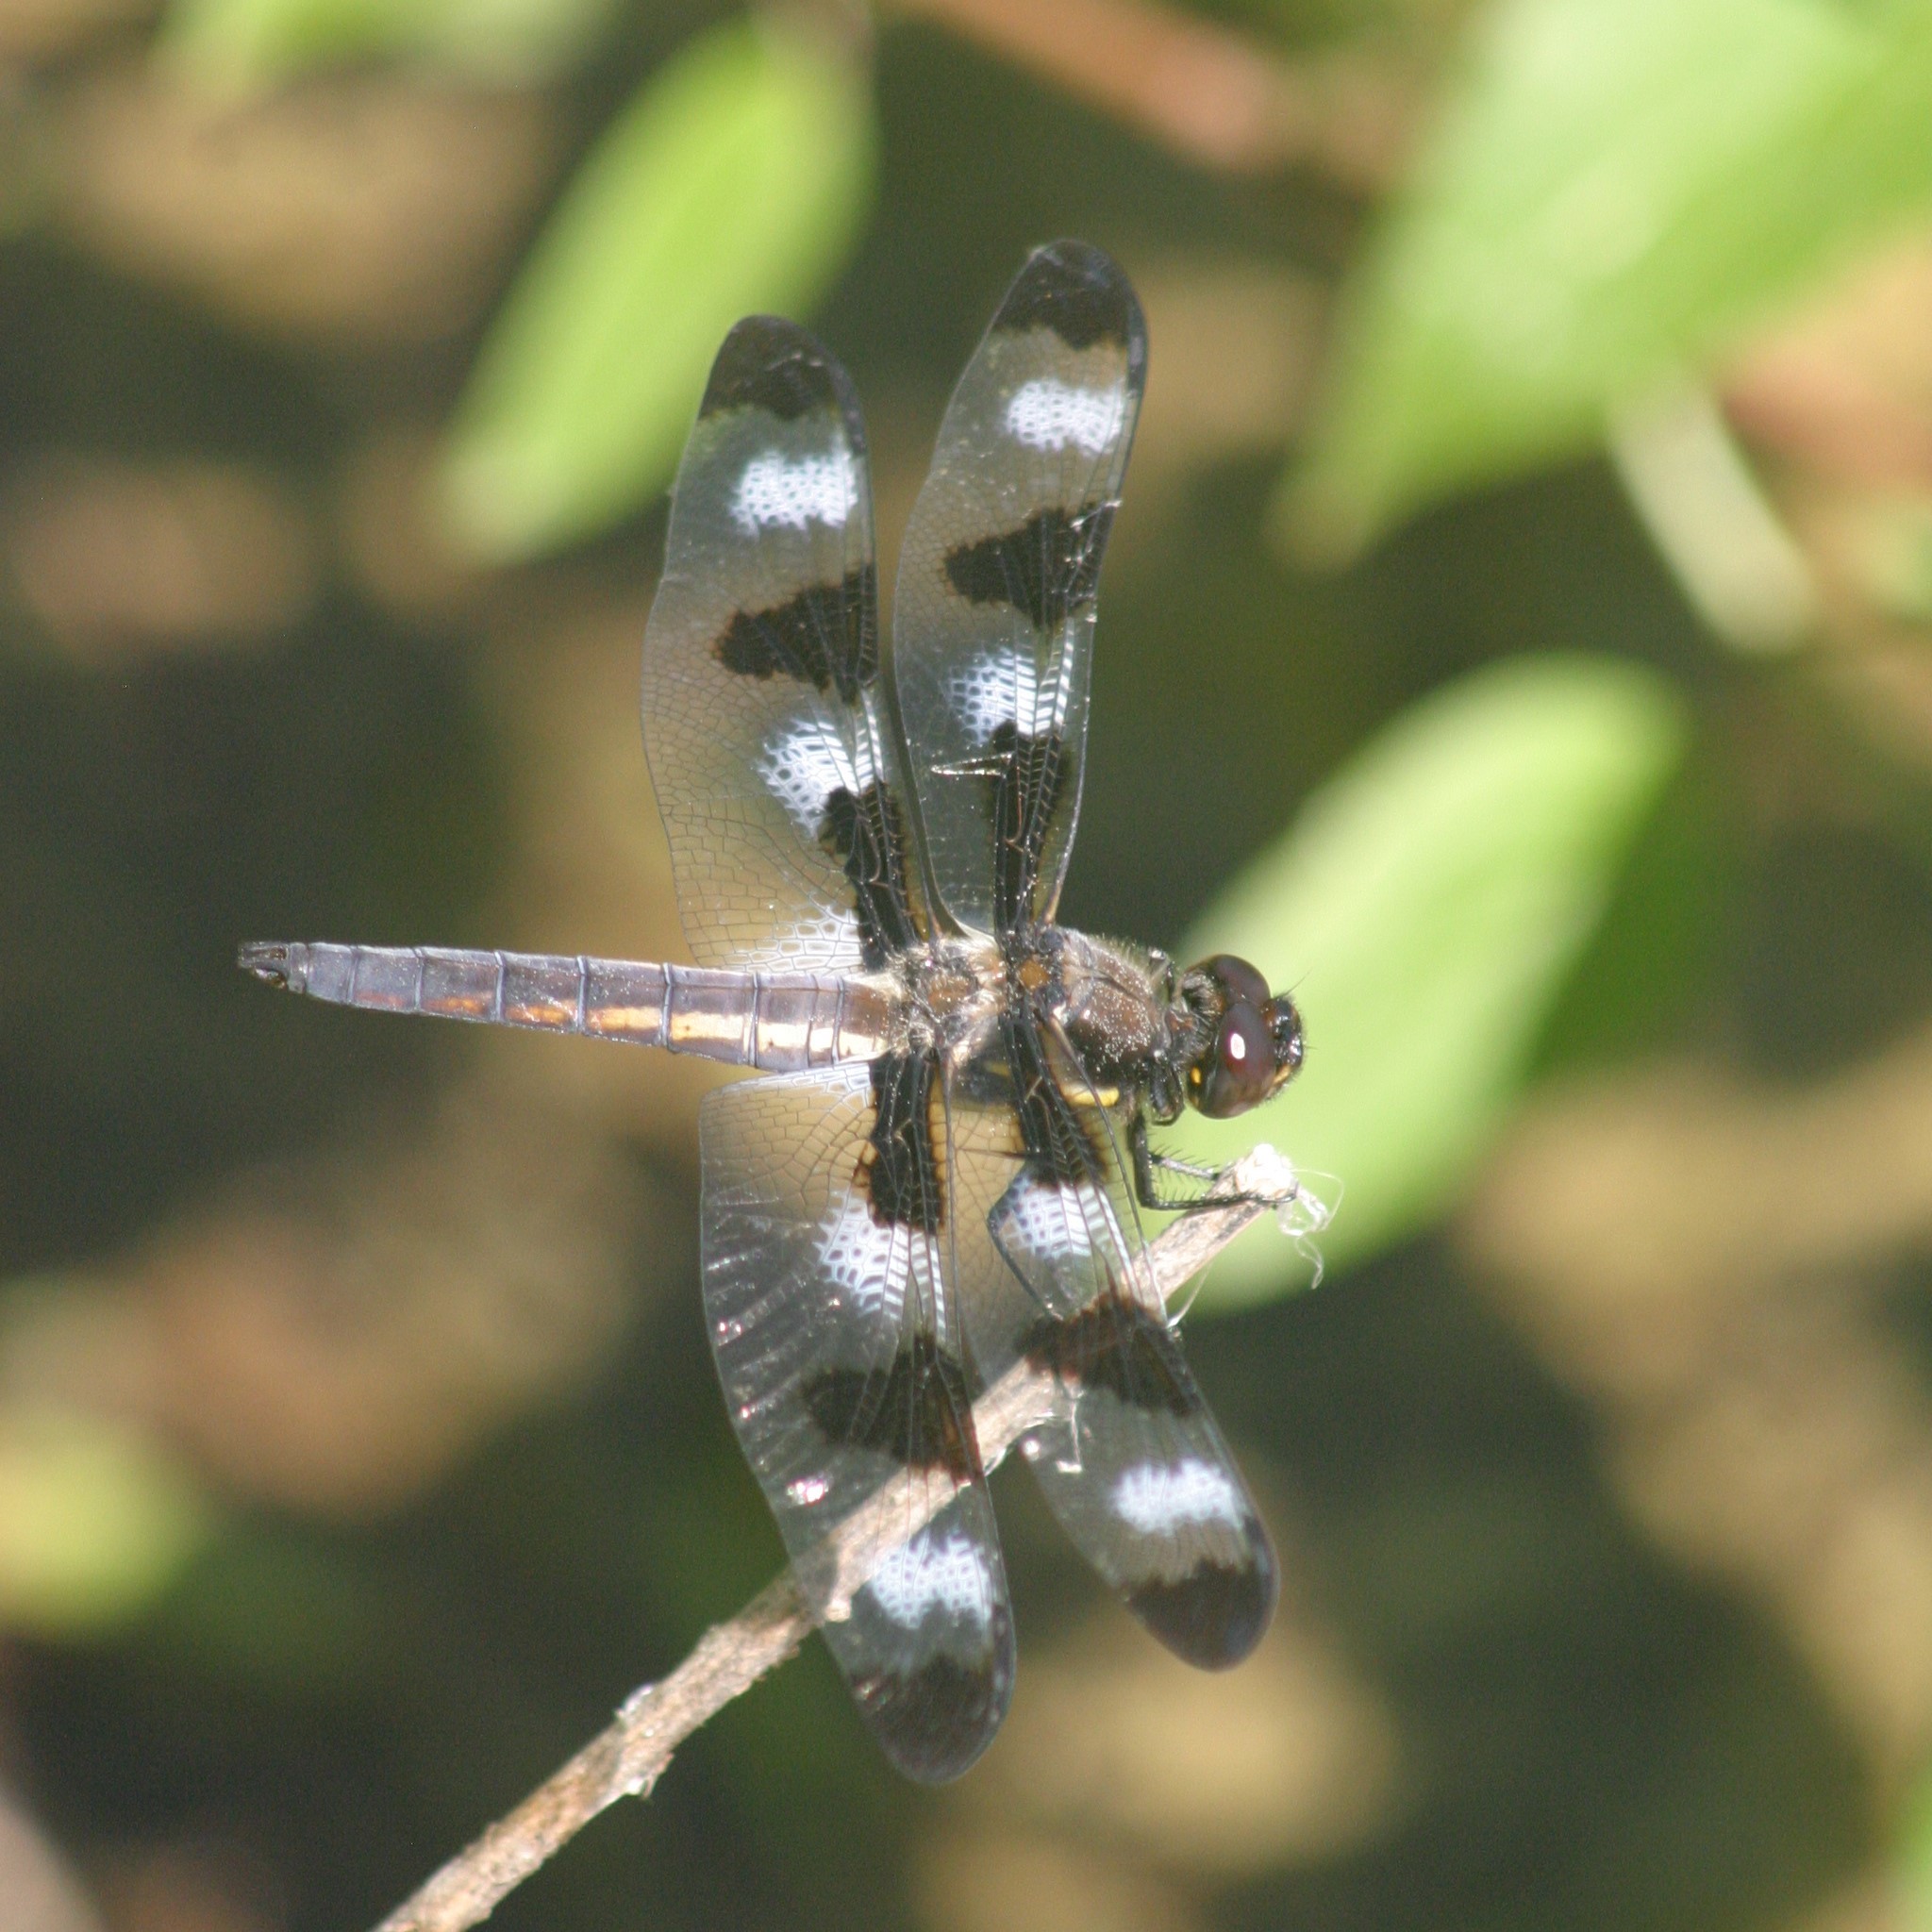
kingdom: Animalia
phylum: Arthropoda
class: Insecta
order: Odonata
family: Libellulidae
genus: Libellula
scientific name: Libellula pulchella
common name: Twelve-spotted skimmer
